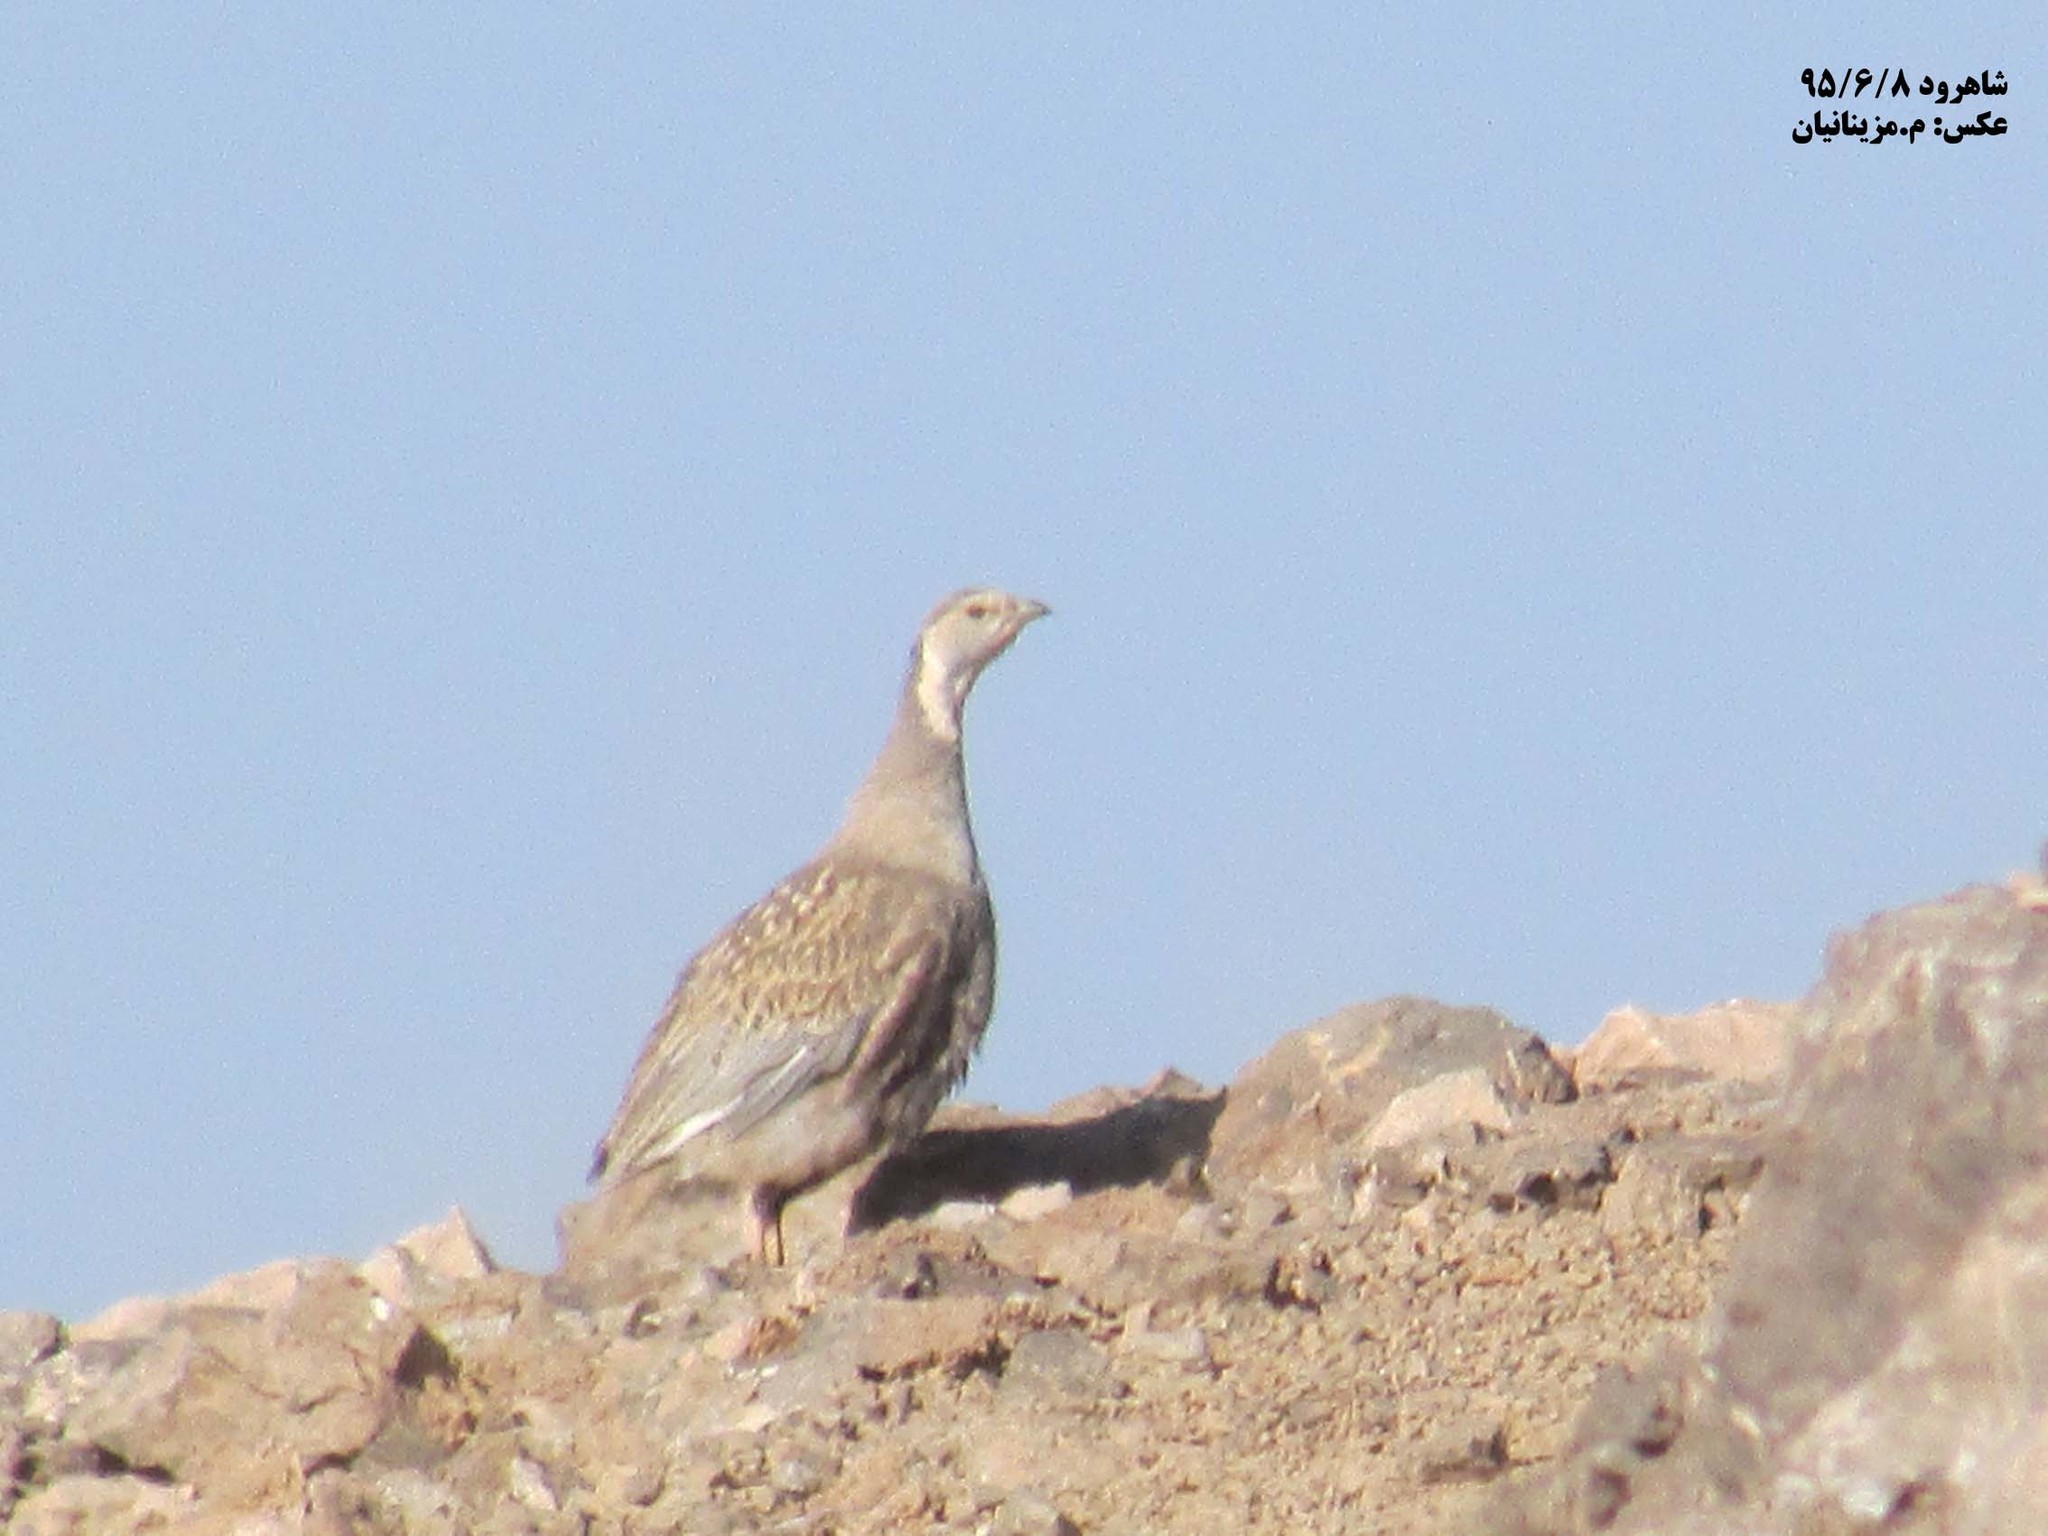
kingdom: Animalia
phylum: Chordata
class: Aves
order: Galliformes
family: Phasianidae
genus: Tetraogallus
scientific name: Tetraogallus caspius
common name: Caspian snowcock
